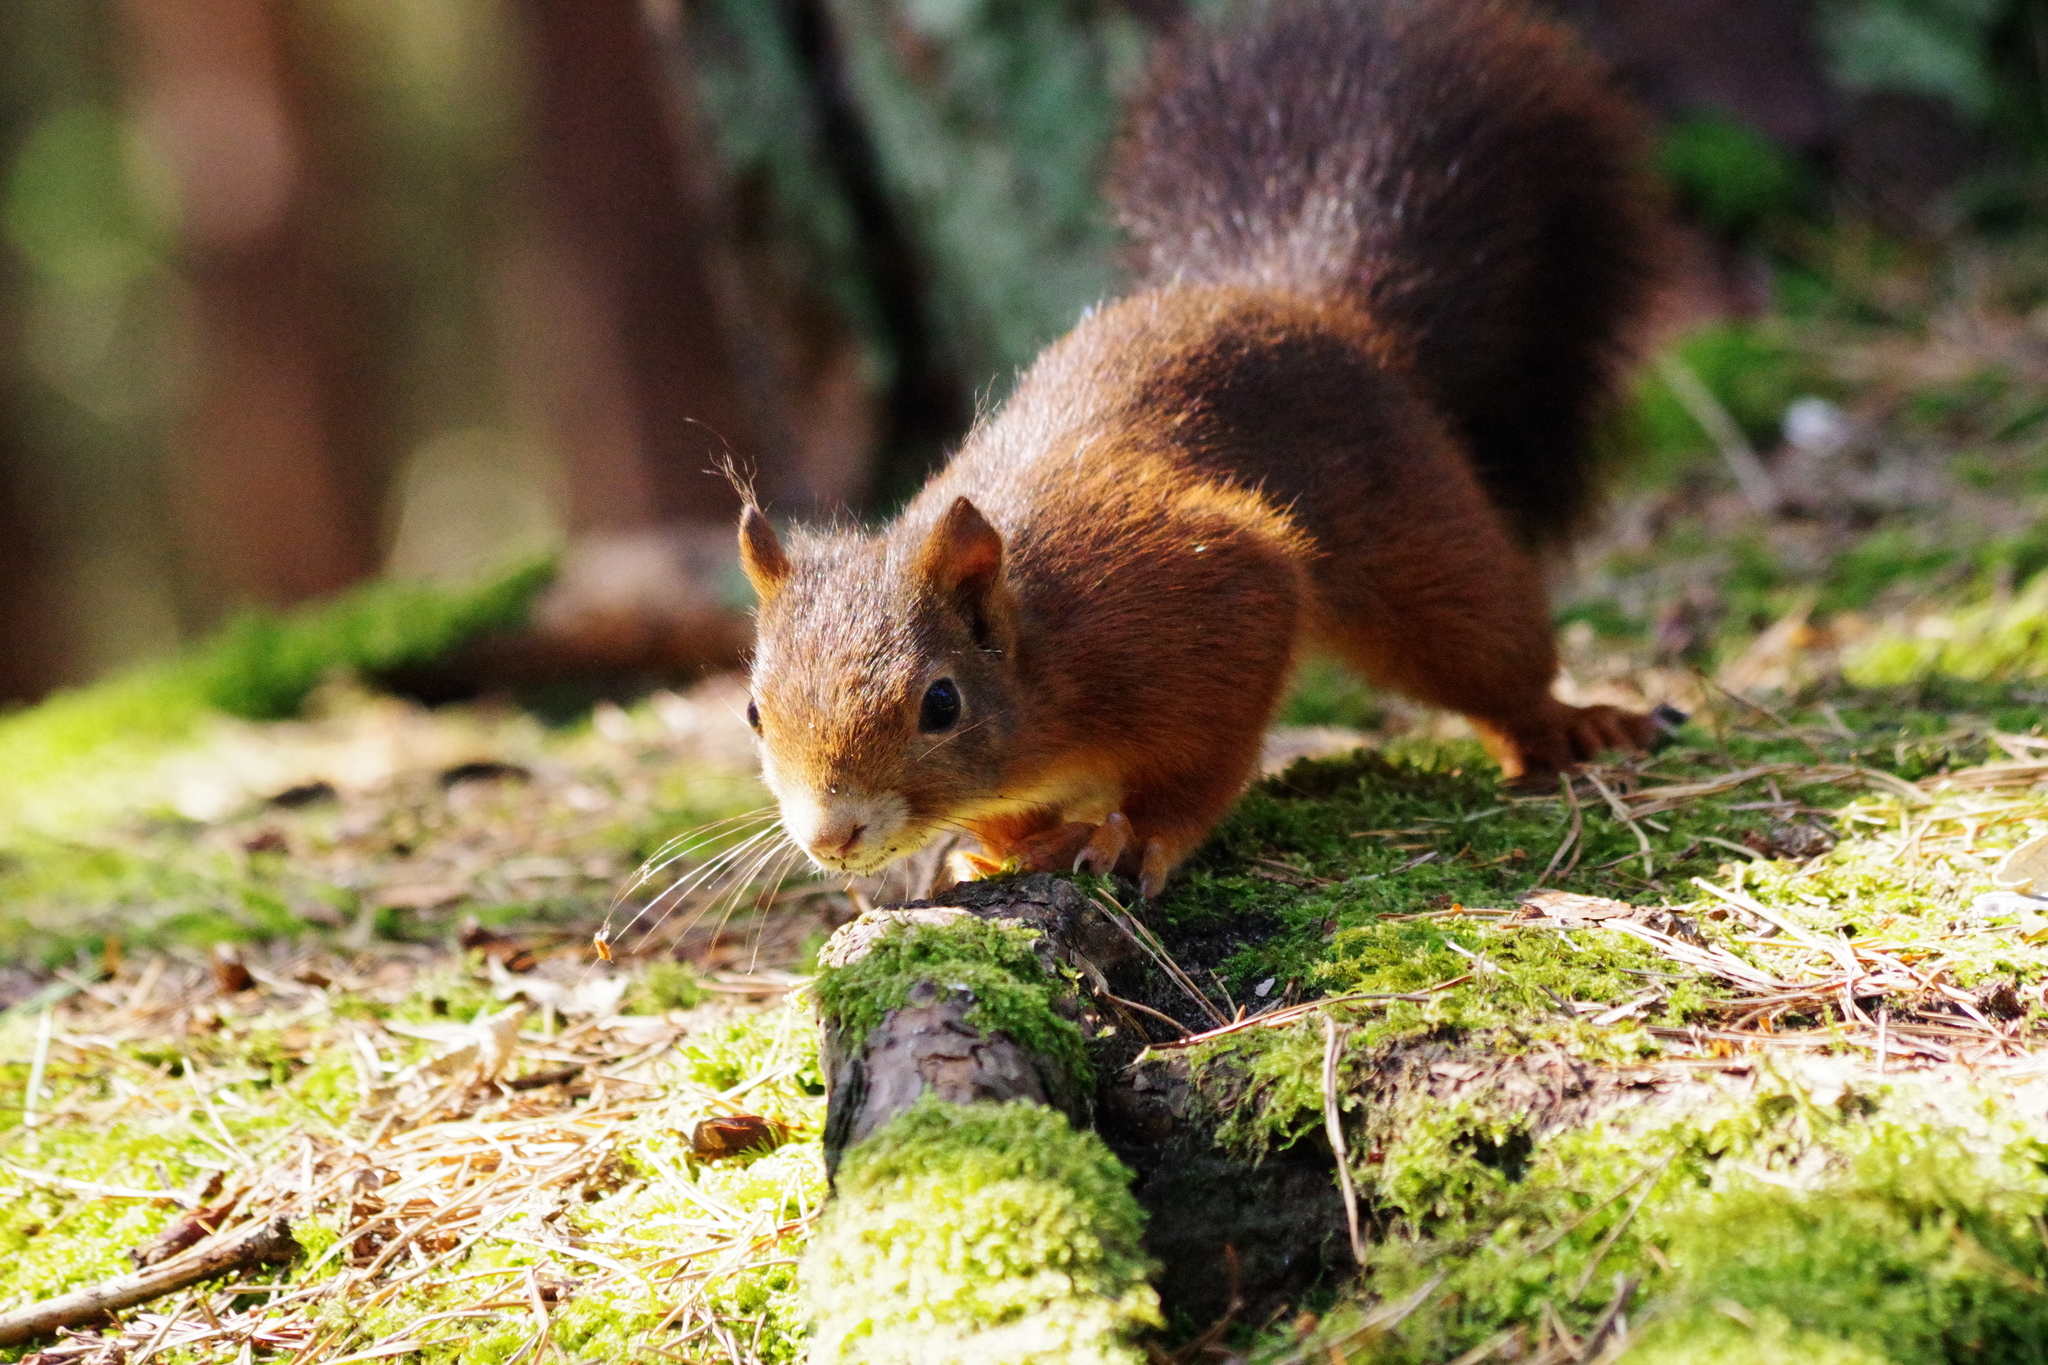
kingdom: Animalia
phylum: Chordata
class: Mammalia
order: Rodentia
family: Sciuridae
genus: Sciurus
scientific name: Sciurus vulgaris
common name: Eurasian red squirrel
